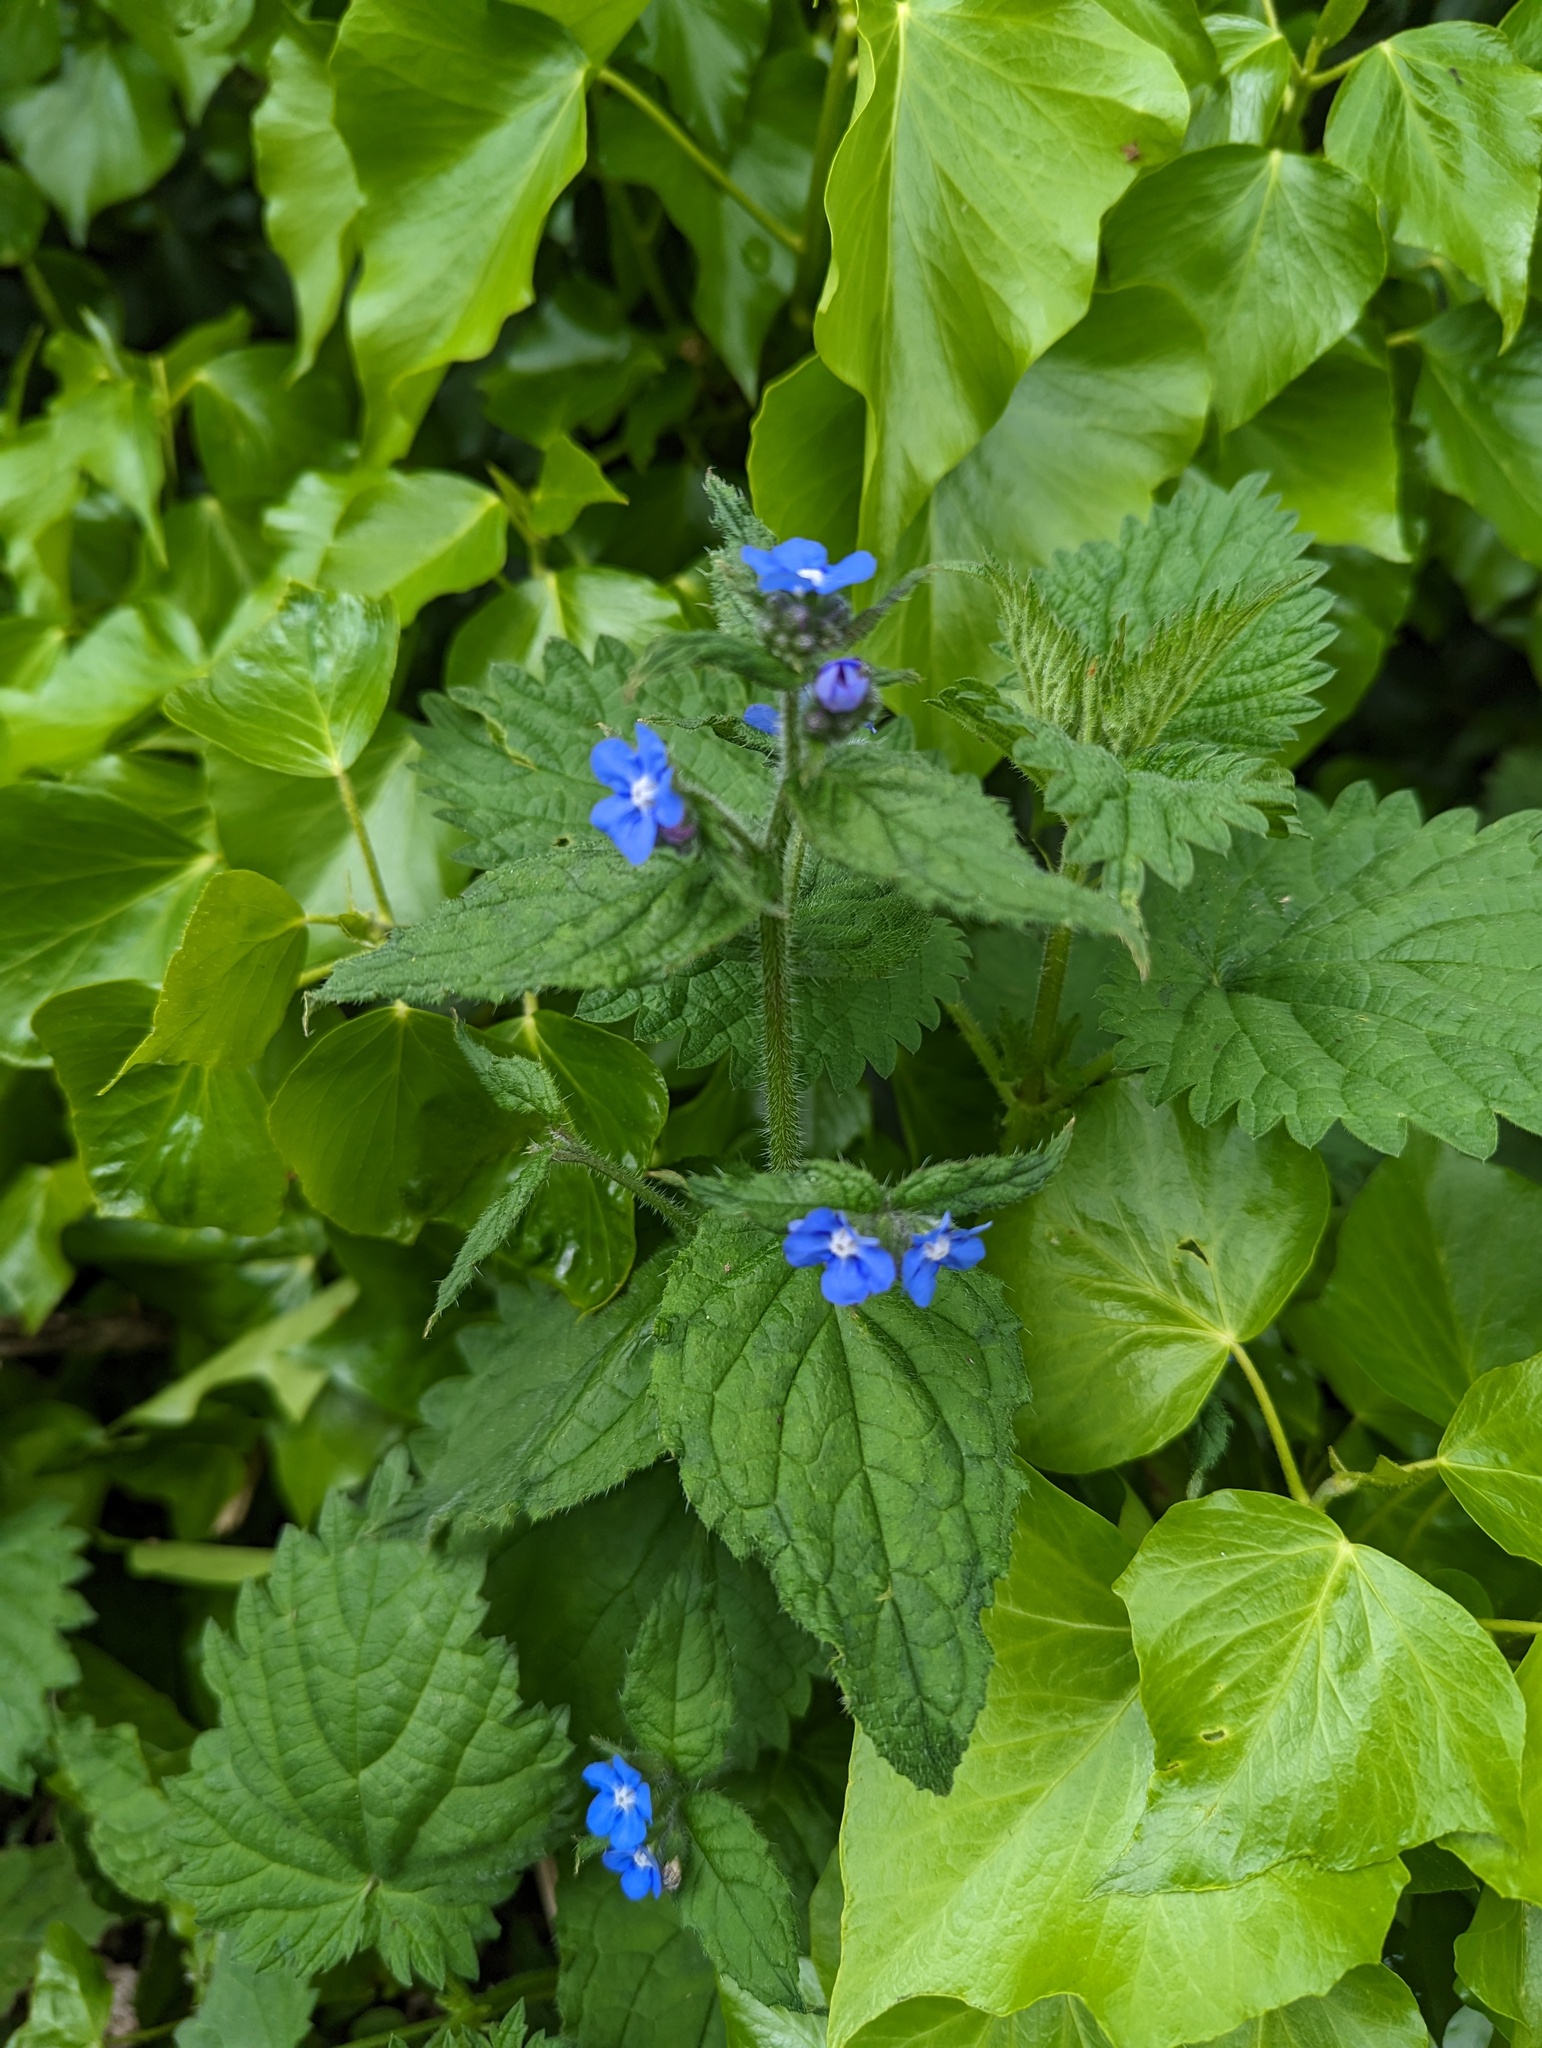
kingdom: Plantae
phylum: Tracheophyta
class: Magnoliopsida
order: Boraginales
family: Boraginaceae
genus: Pentaglottis
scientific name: Pentaglottis sempervirens
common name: Green alkanet
